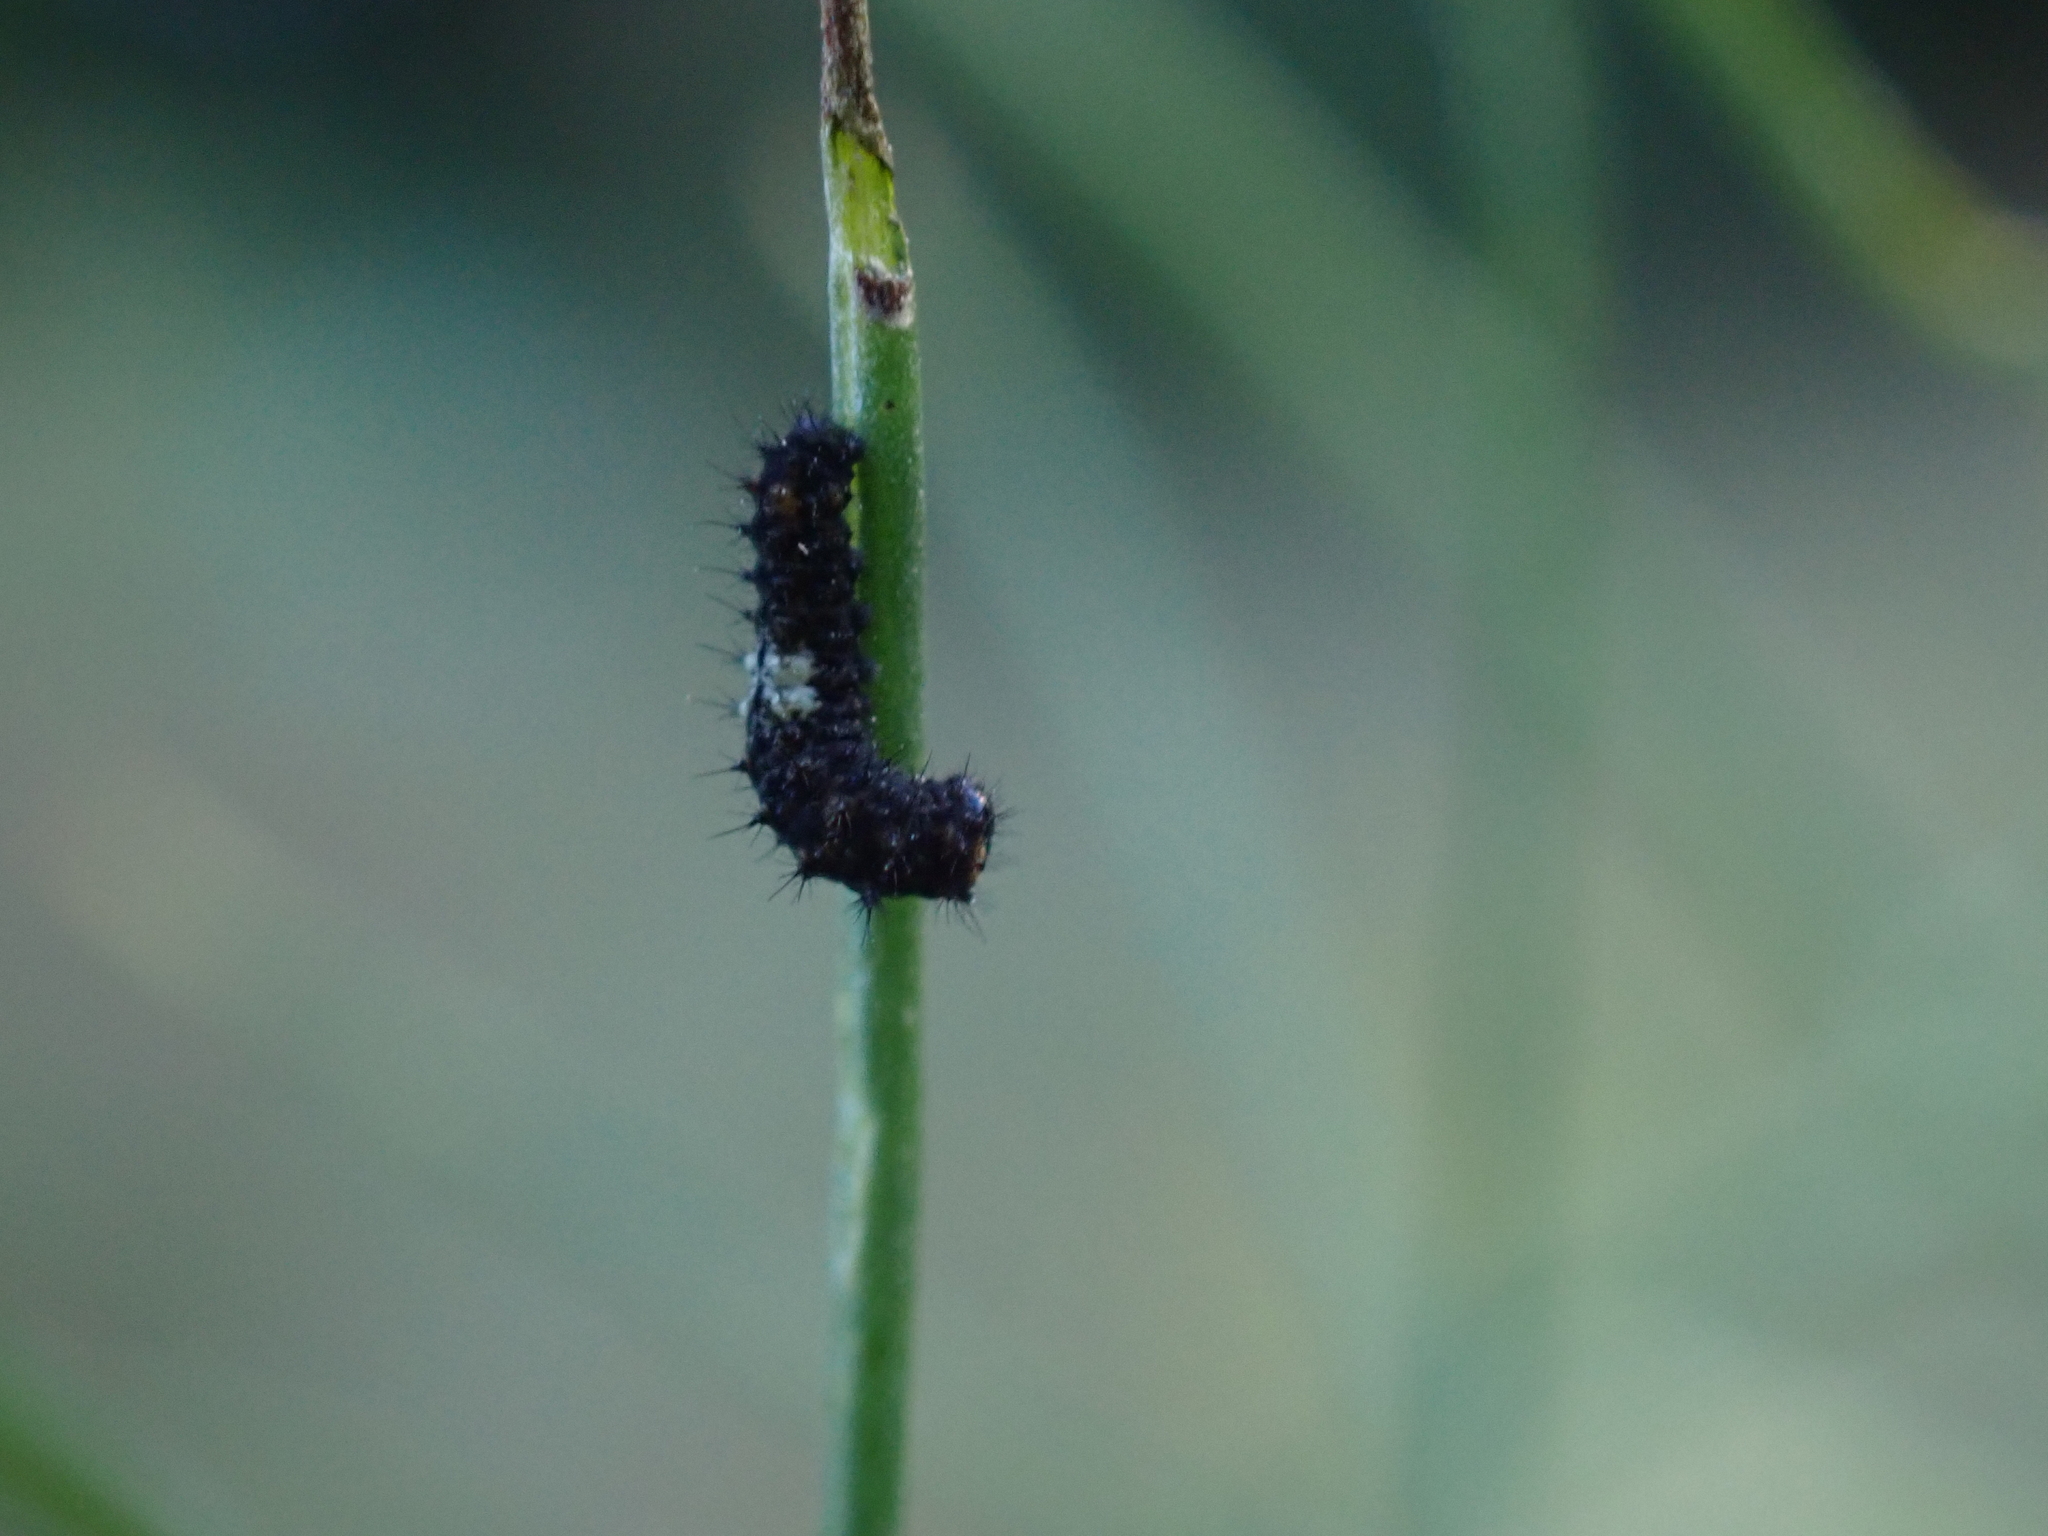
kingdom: Animalia
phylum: Arthropoda
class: Insecta
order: Lepidoptera
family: Papilionidae
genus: Papilio
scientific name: Papilio machaon
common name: Swallowtail
